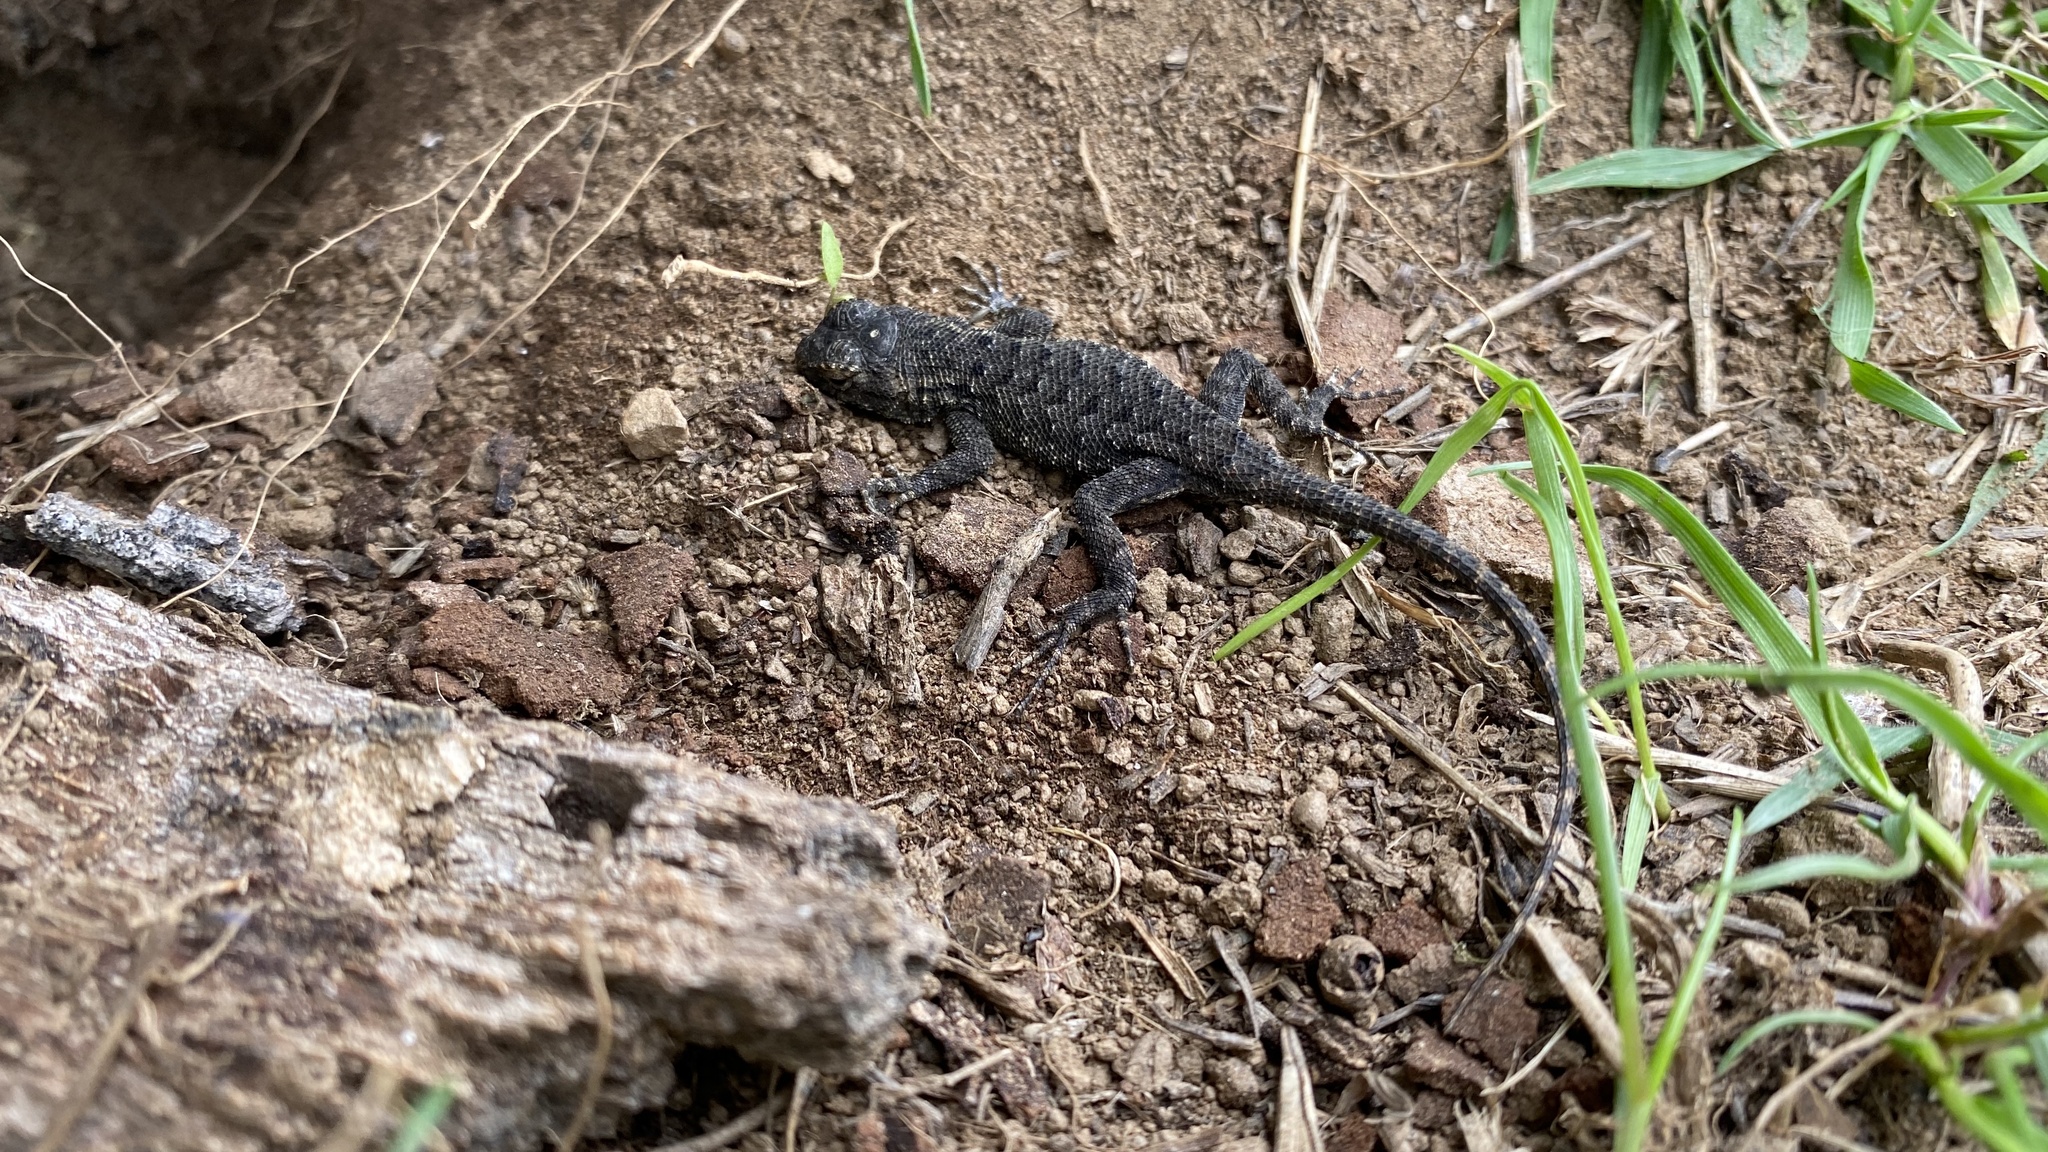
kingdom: Animalia
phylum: Chordata
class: Squamata
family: Phrynosomatidae
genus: Sceloporus
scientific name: Sceloporus occidentalis
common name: Western fence lizard
